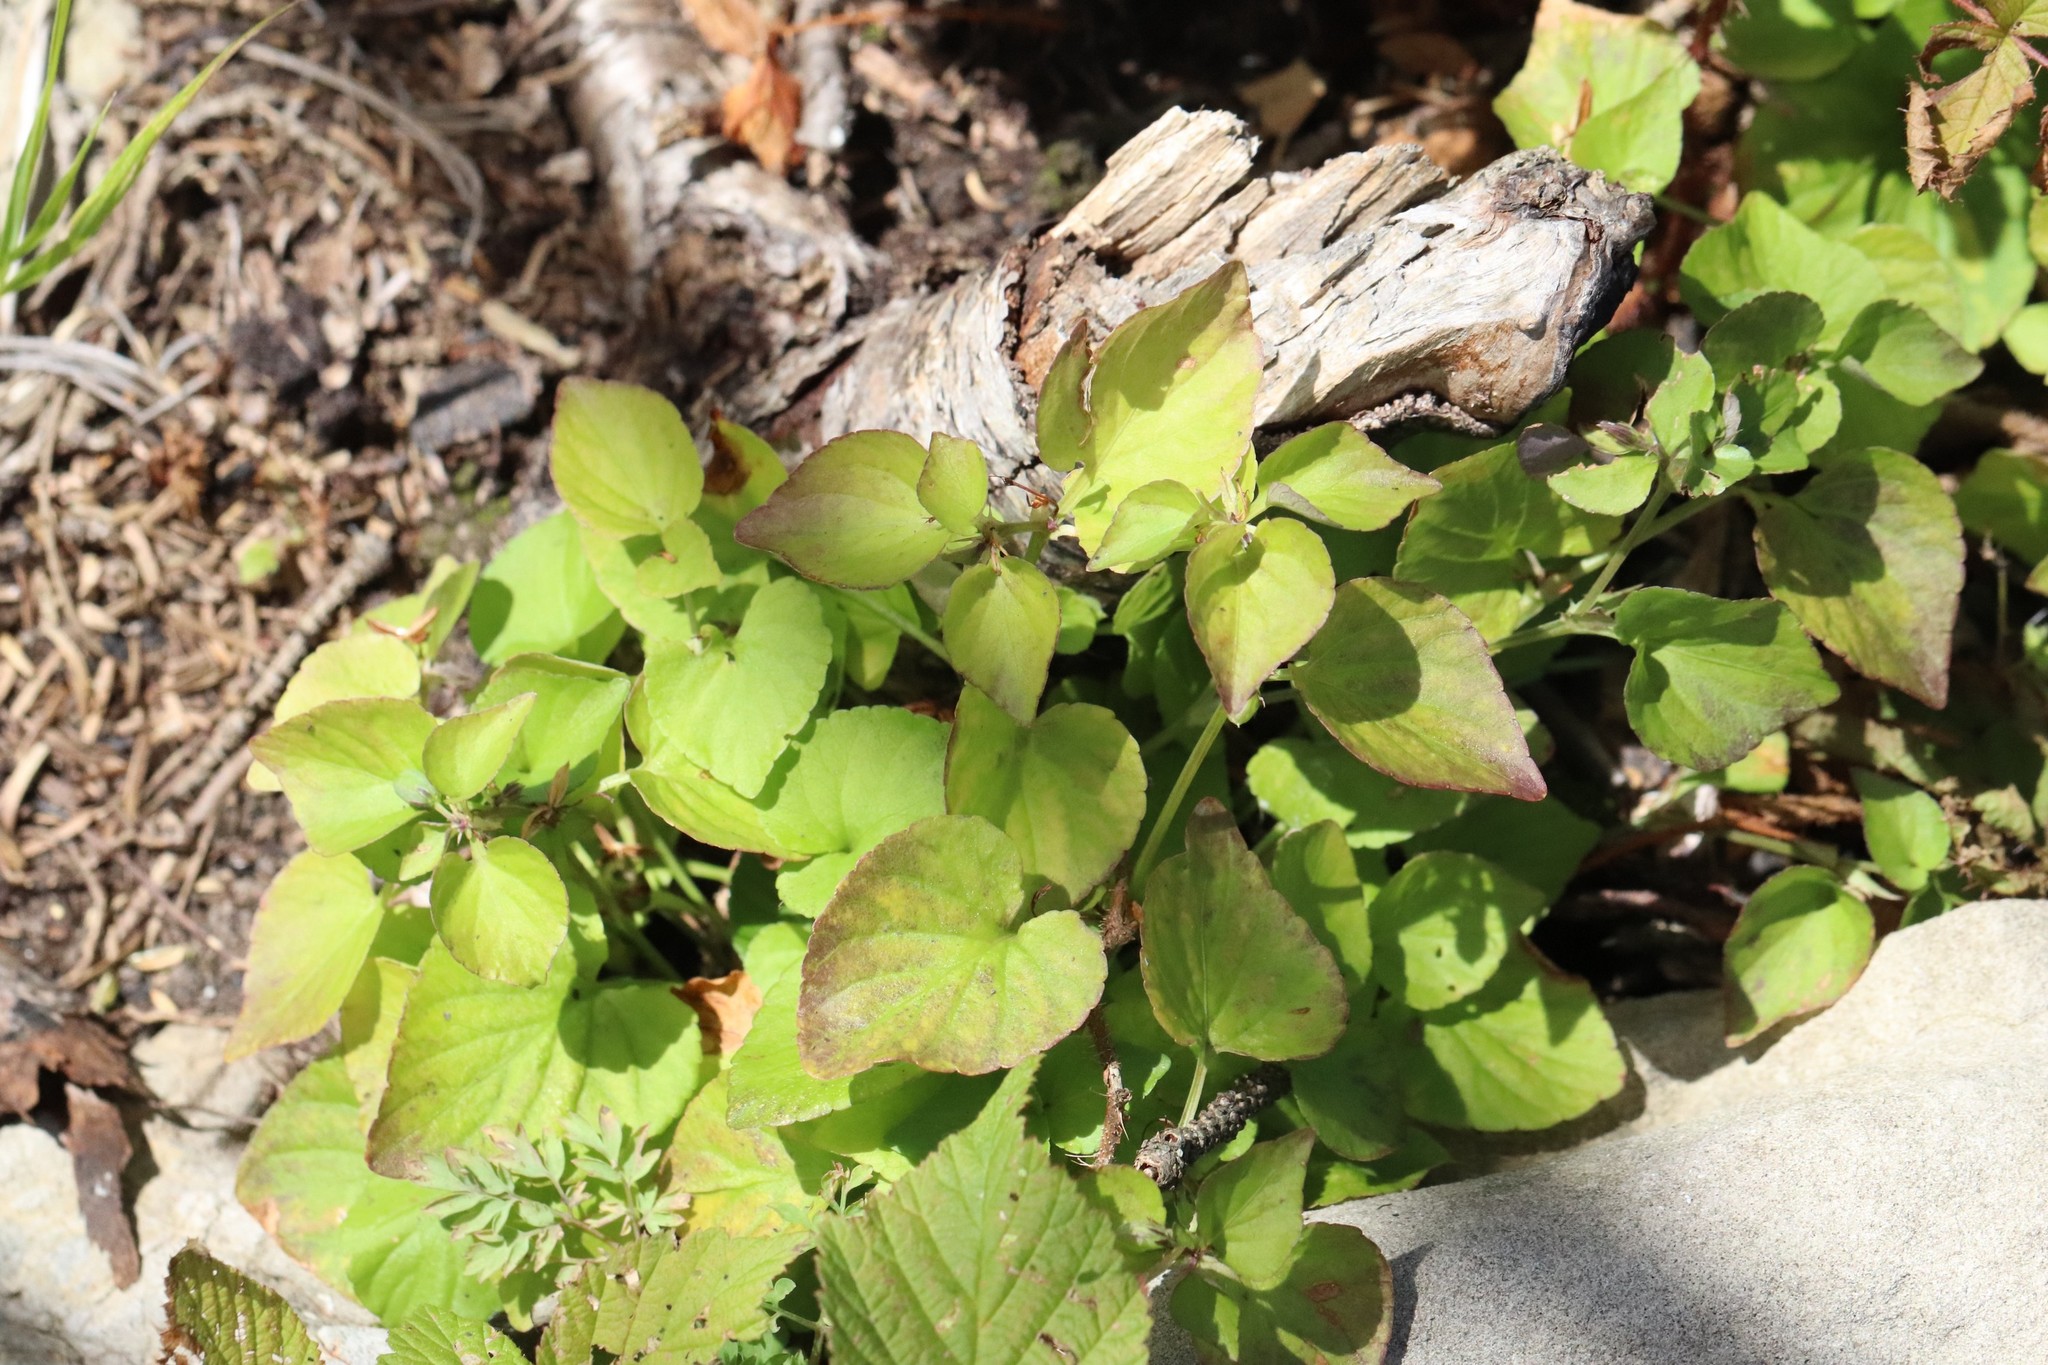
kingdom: Plantae
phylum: Tracheophyta
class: Magnoliopsida
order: Malpighiales
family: Violaceae
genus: Viola
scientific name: Viola sacchalinensis
